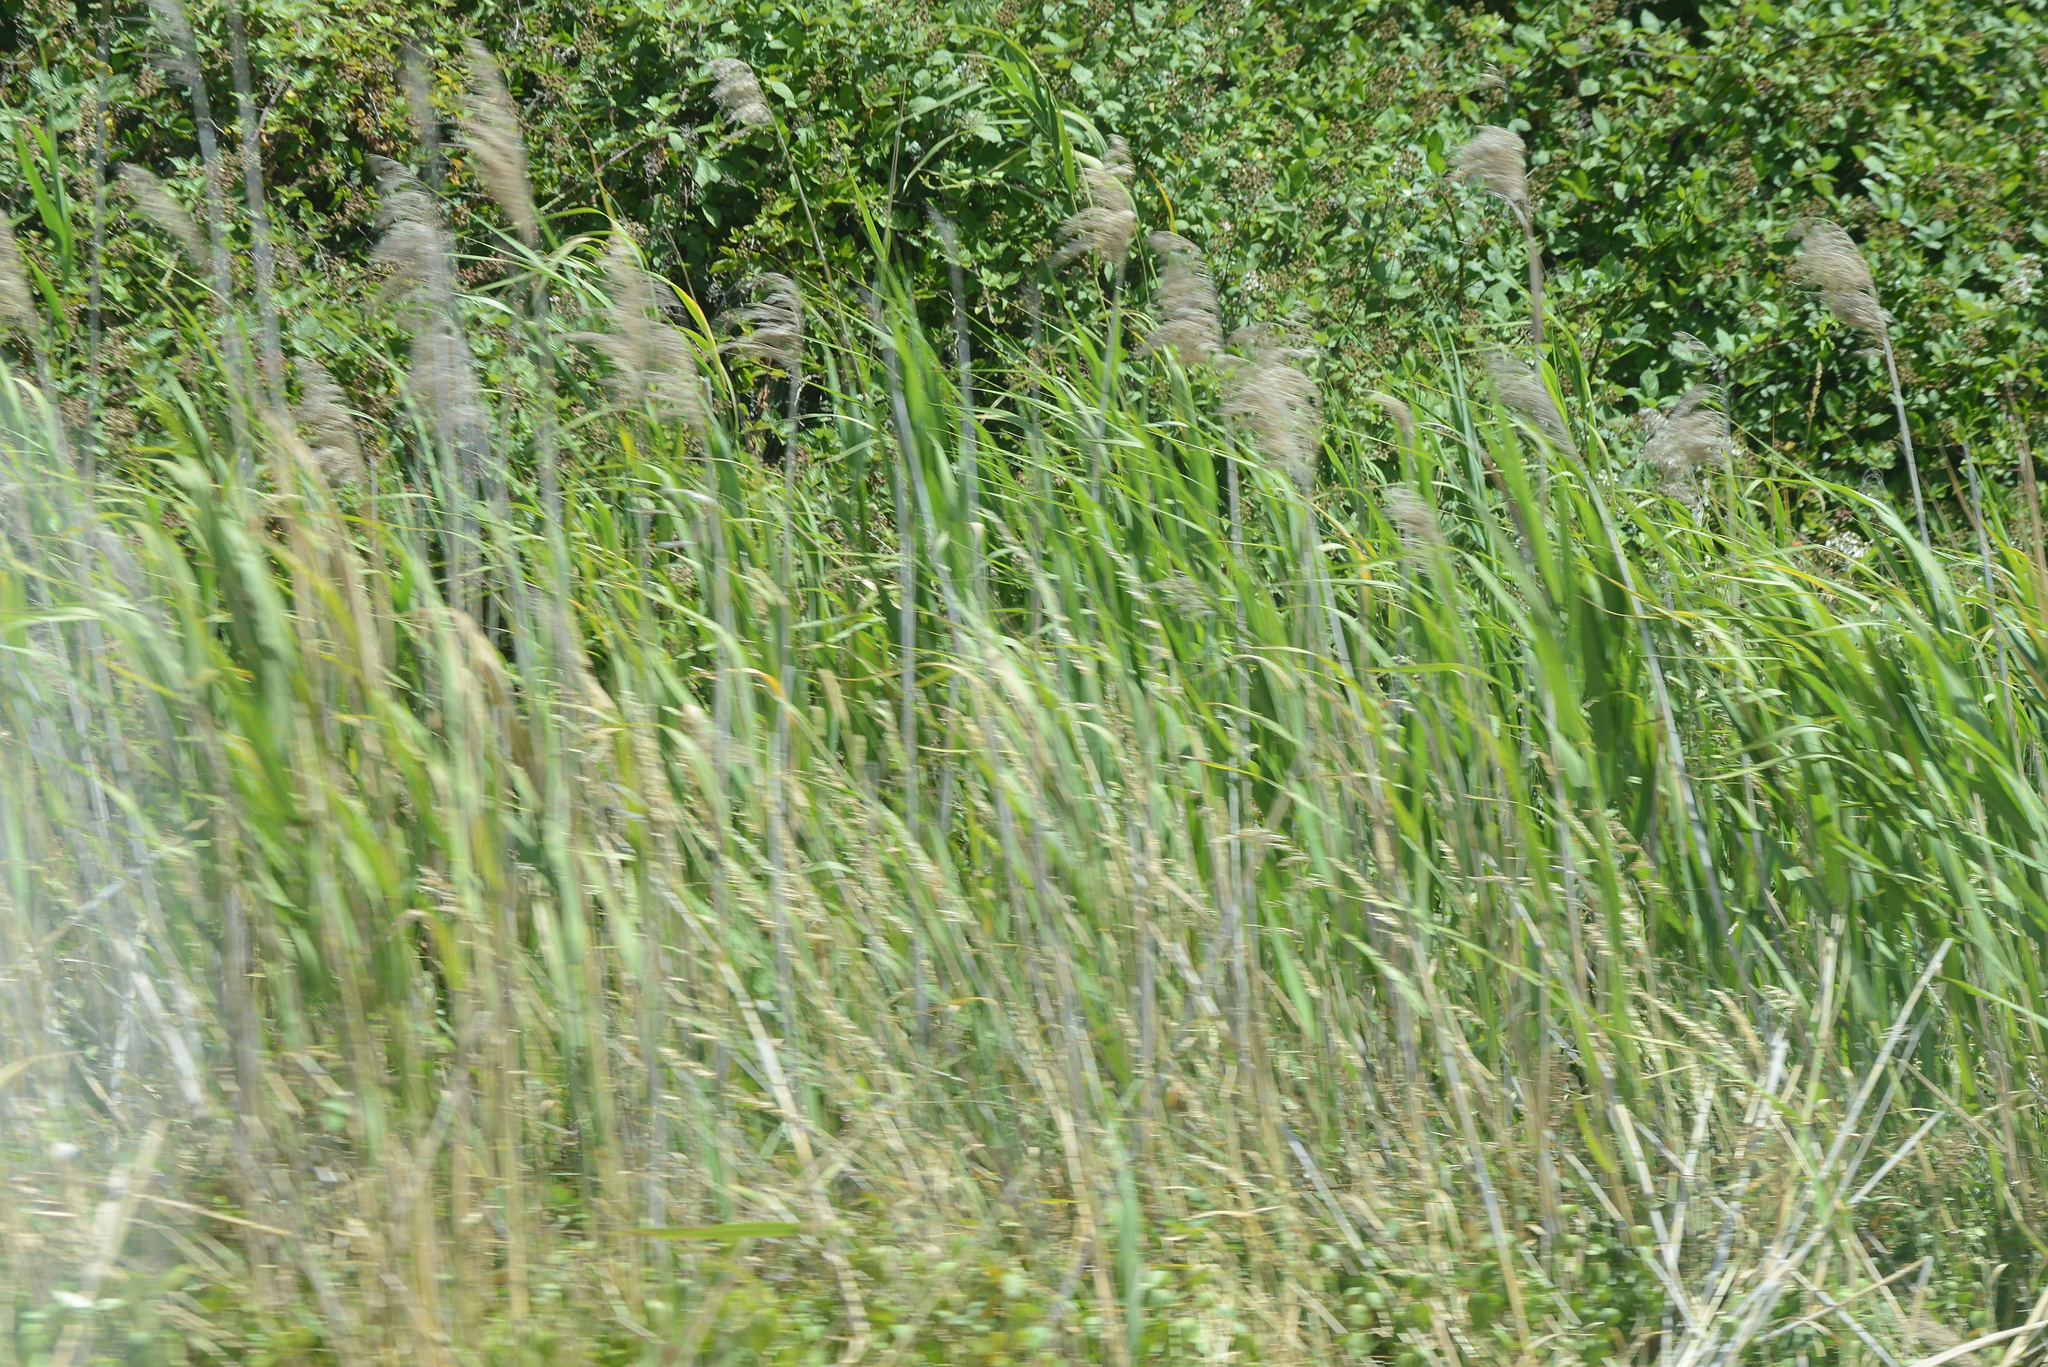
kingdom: Plantae
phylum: Tracheophyta
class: Liliopsida
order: Poales
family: Poaceae
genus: Phragmites
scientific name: Phragmites australis
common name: Common reed
